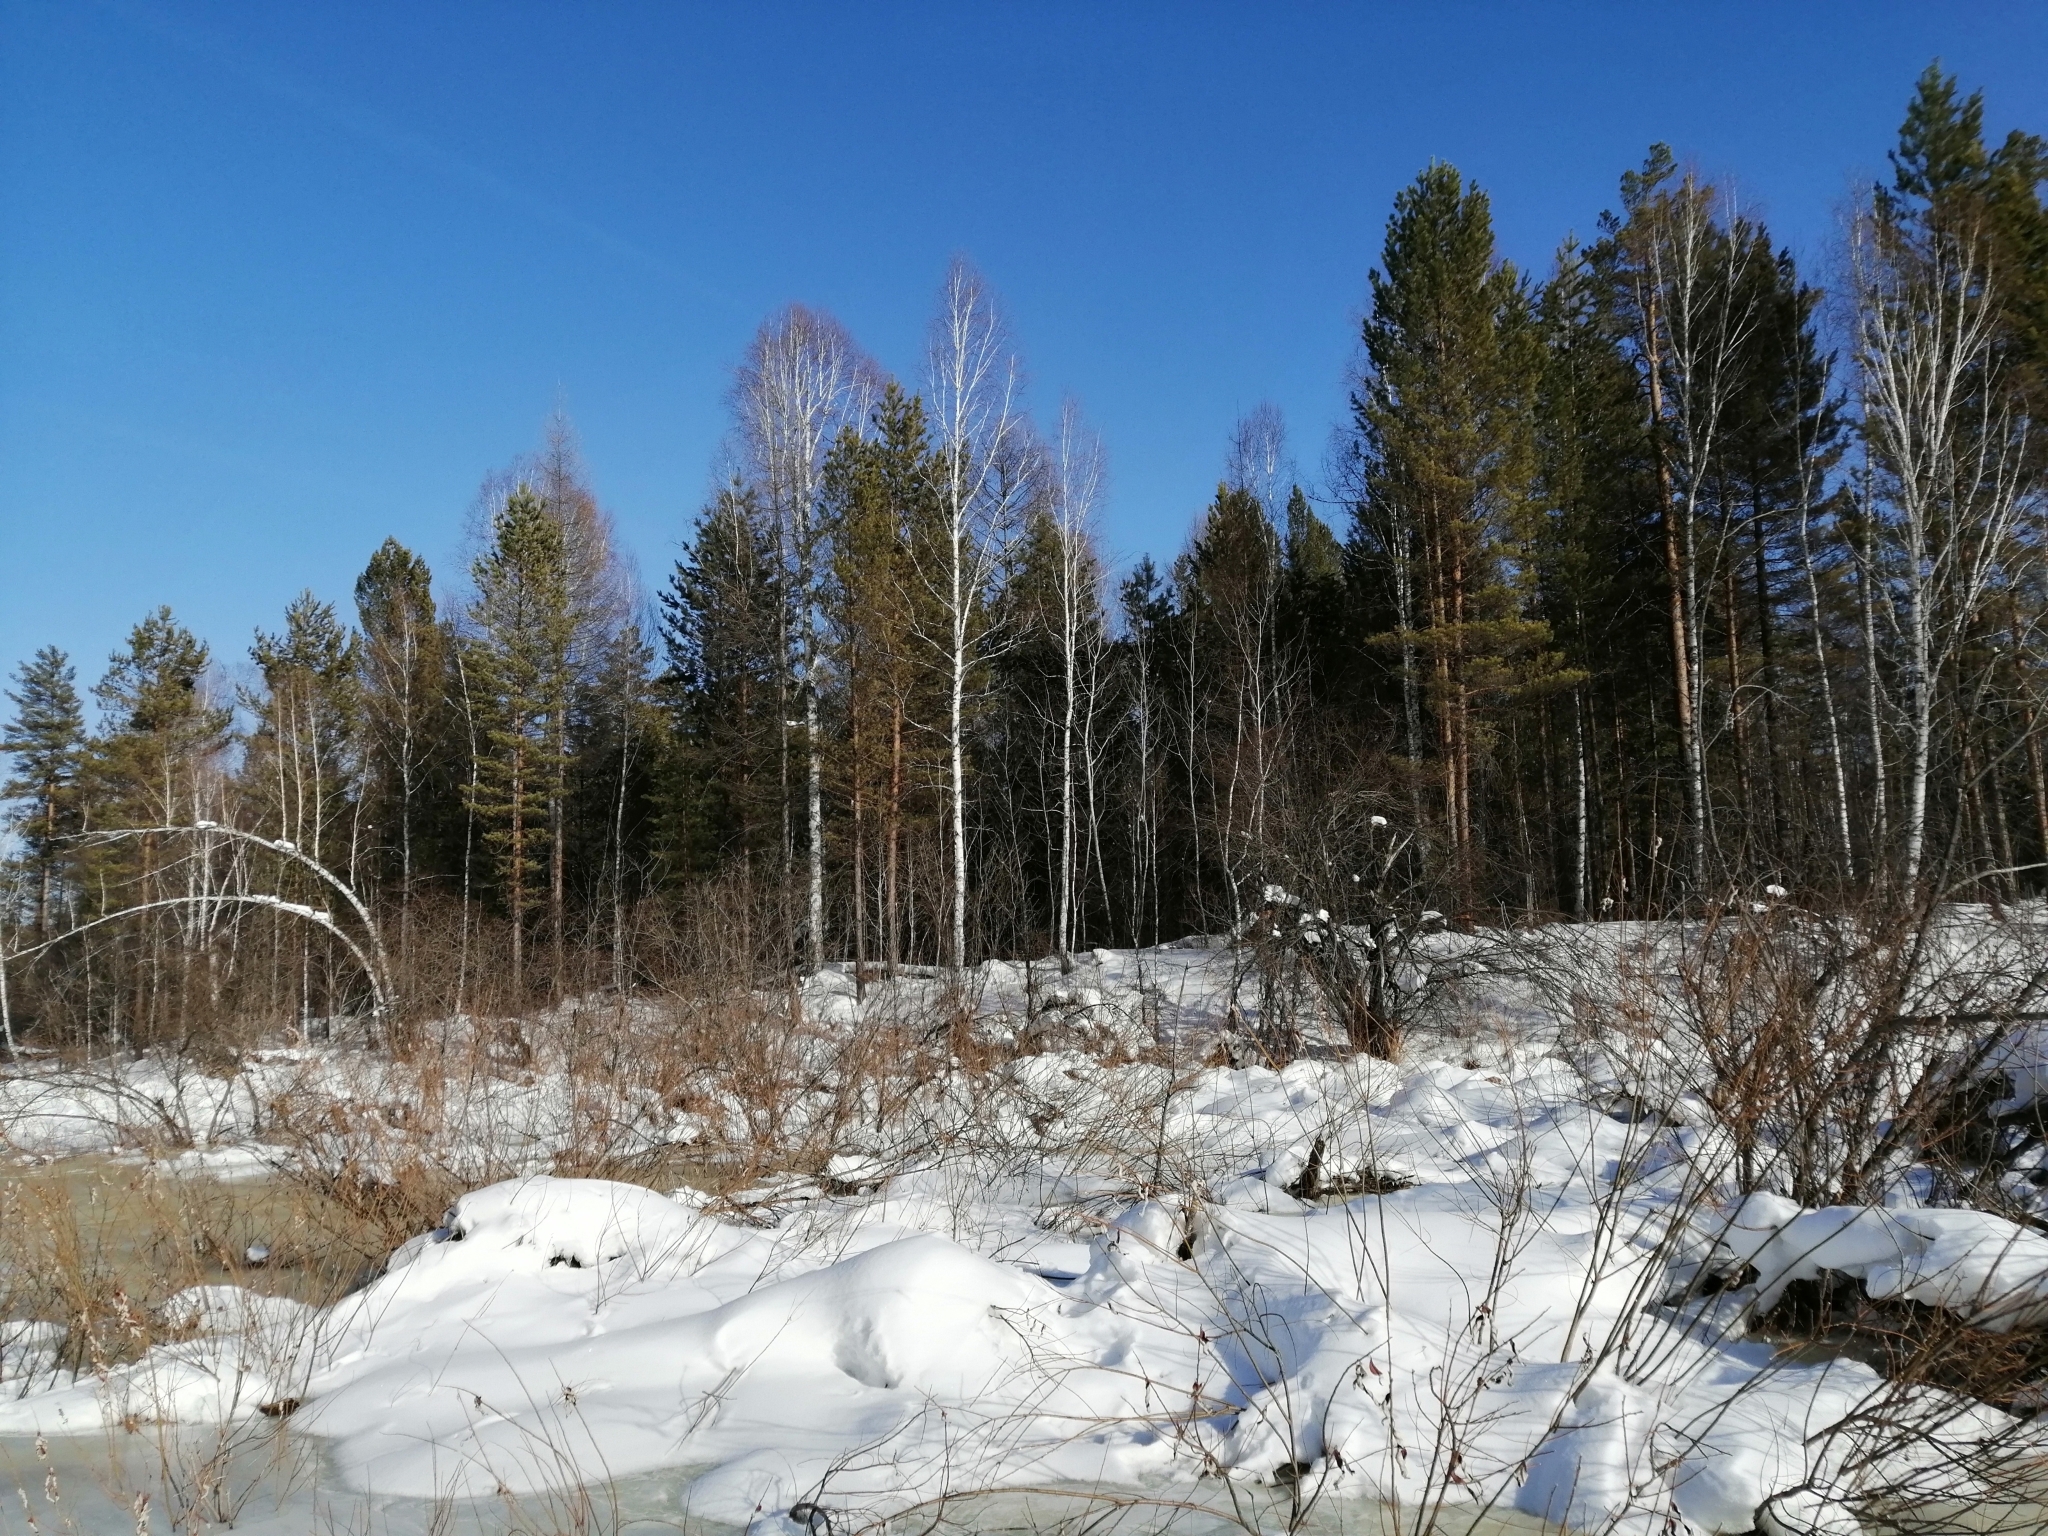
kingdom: Plantae
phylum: Tracheophyta
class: Pinopsida
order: Pinales
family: Pinaceae
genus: Pinus
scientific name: Pinus sylvestris
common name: Scots pine
